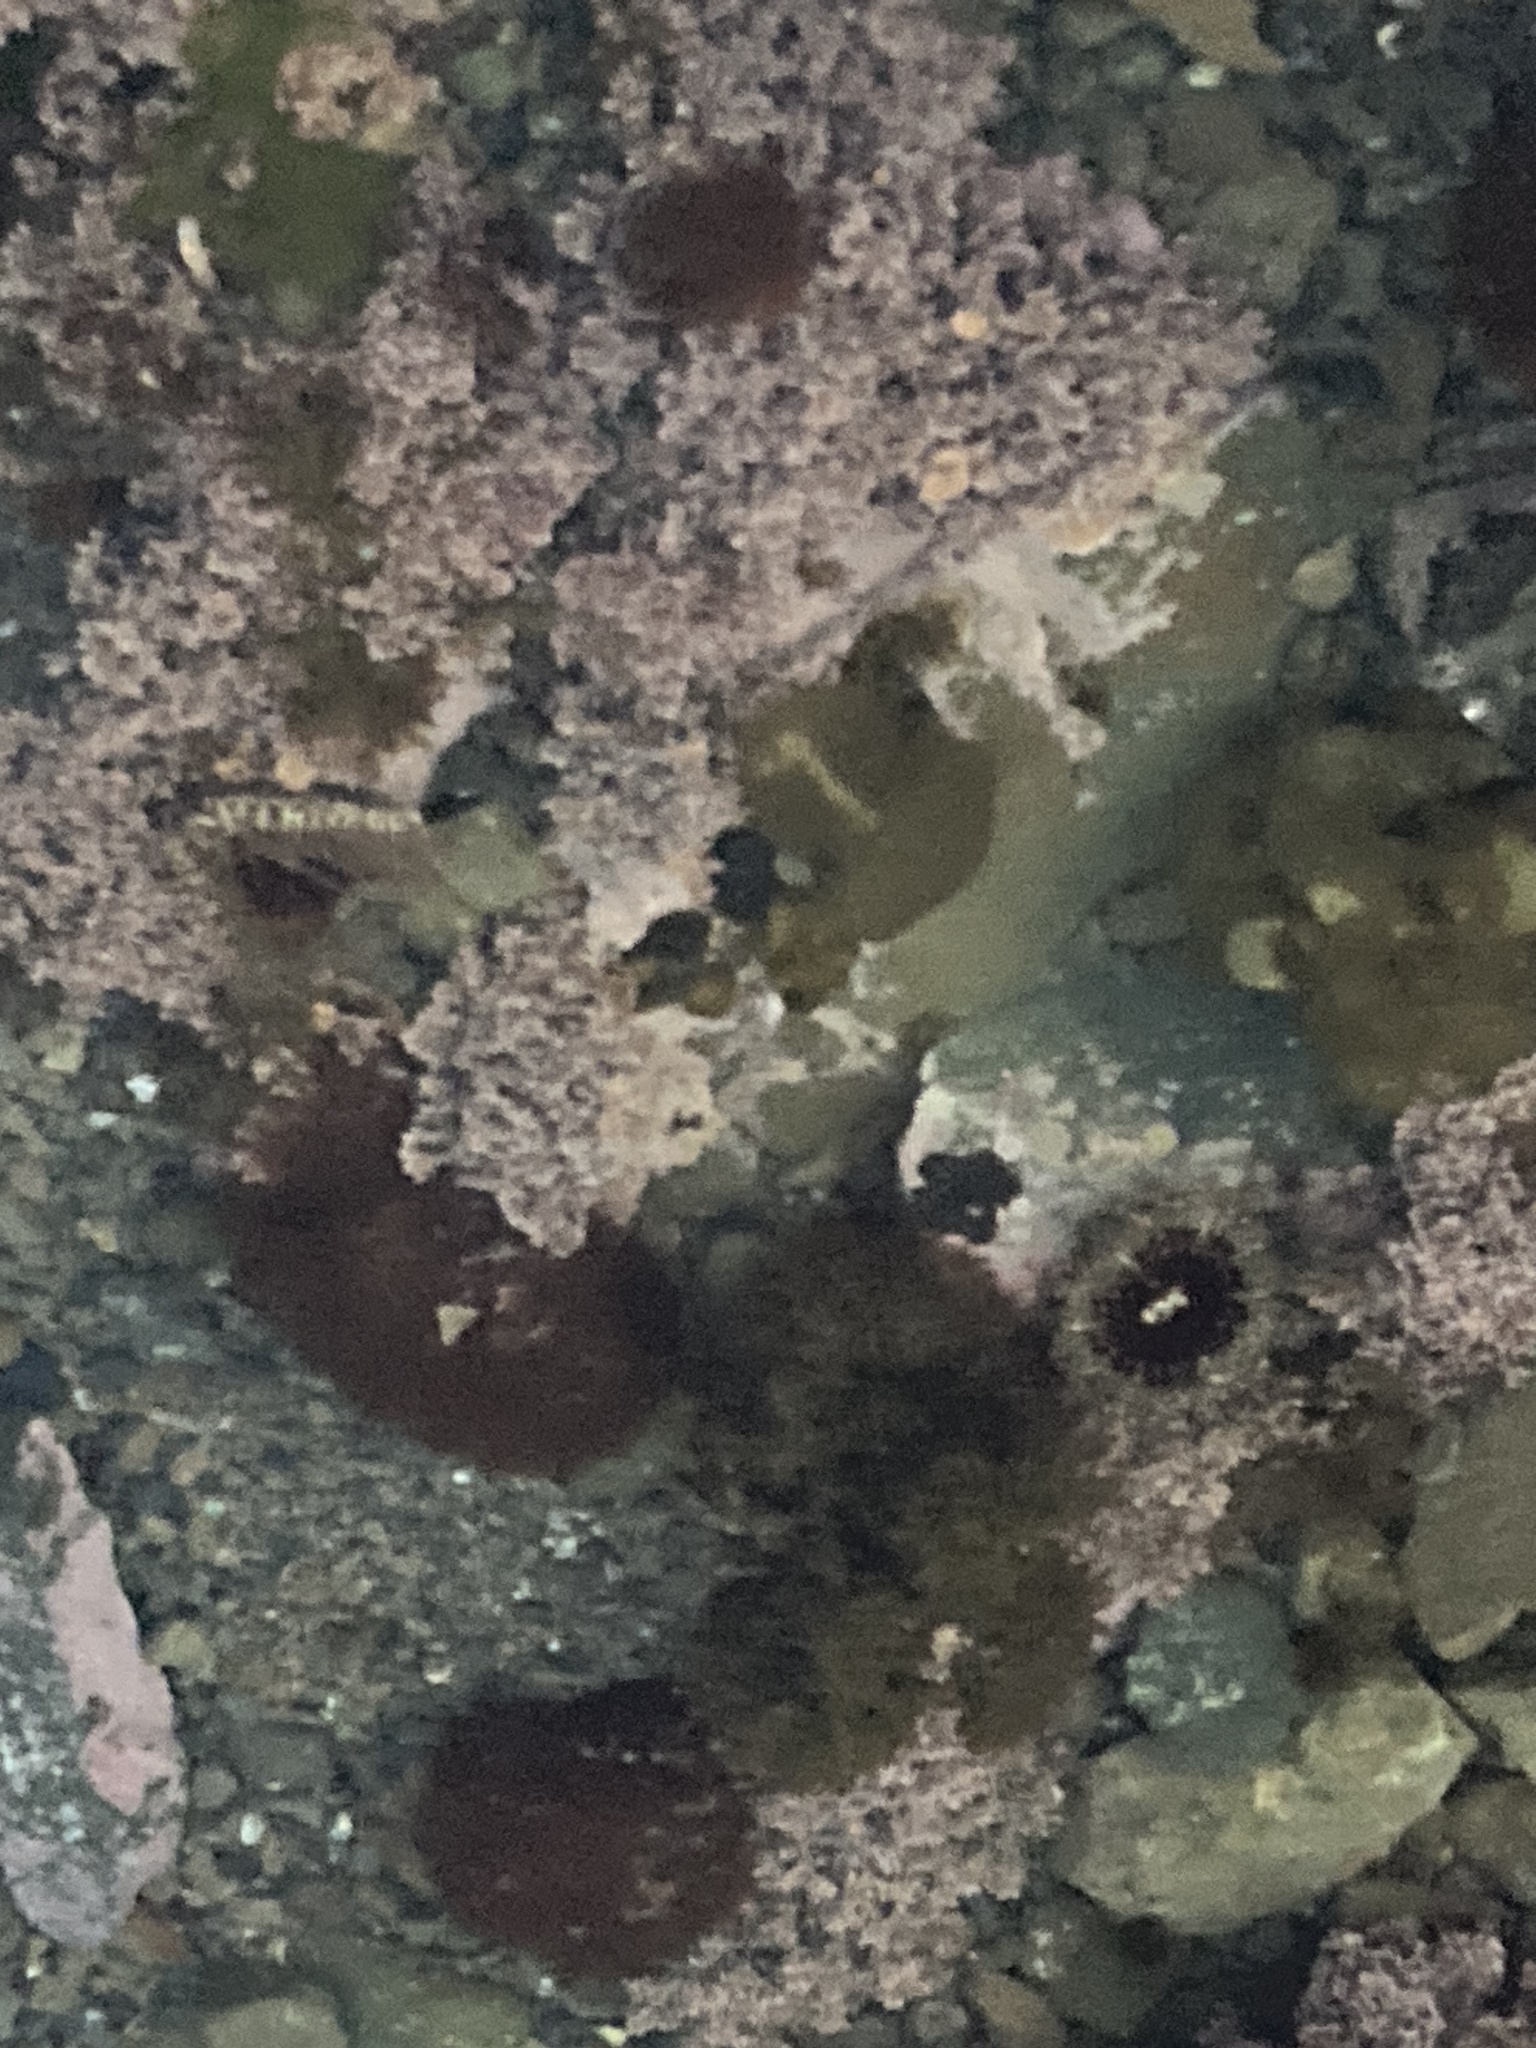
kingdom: Animalia
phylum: Cnidaria
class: Anthozoa
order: Actiniaria
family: Actiniidae
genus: Oulactis
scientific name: Oulactis muscosa
